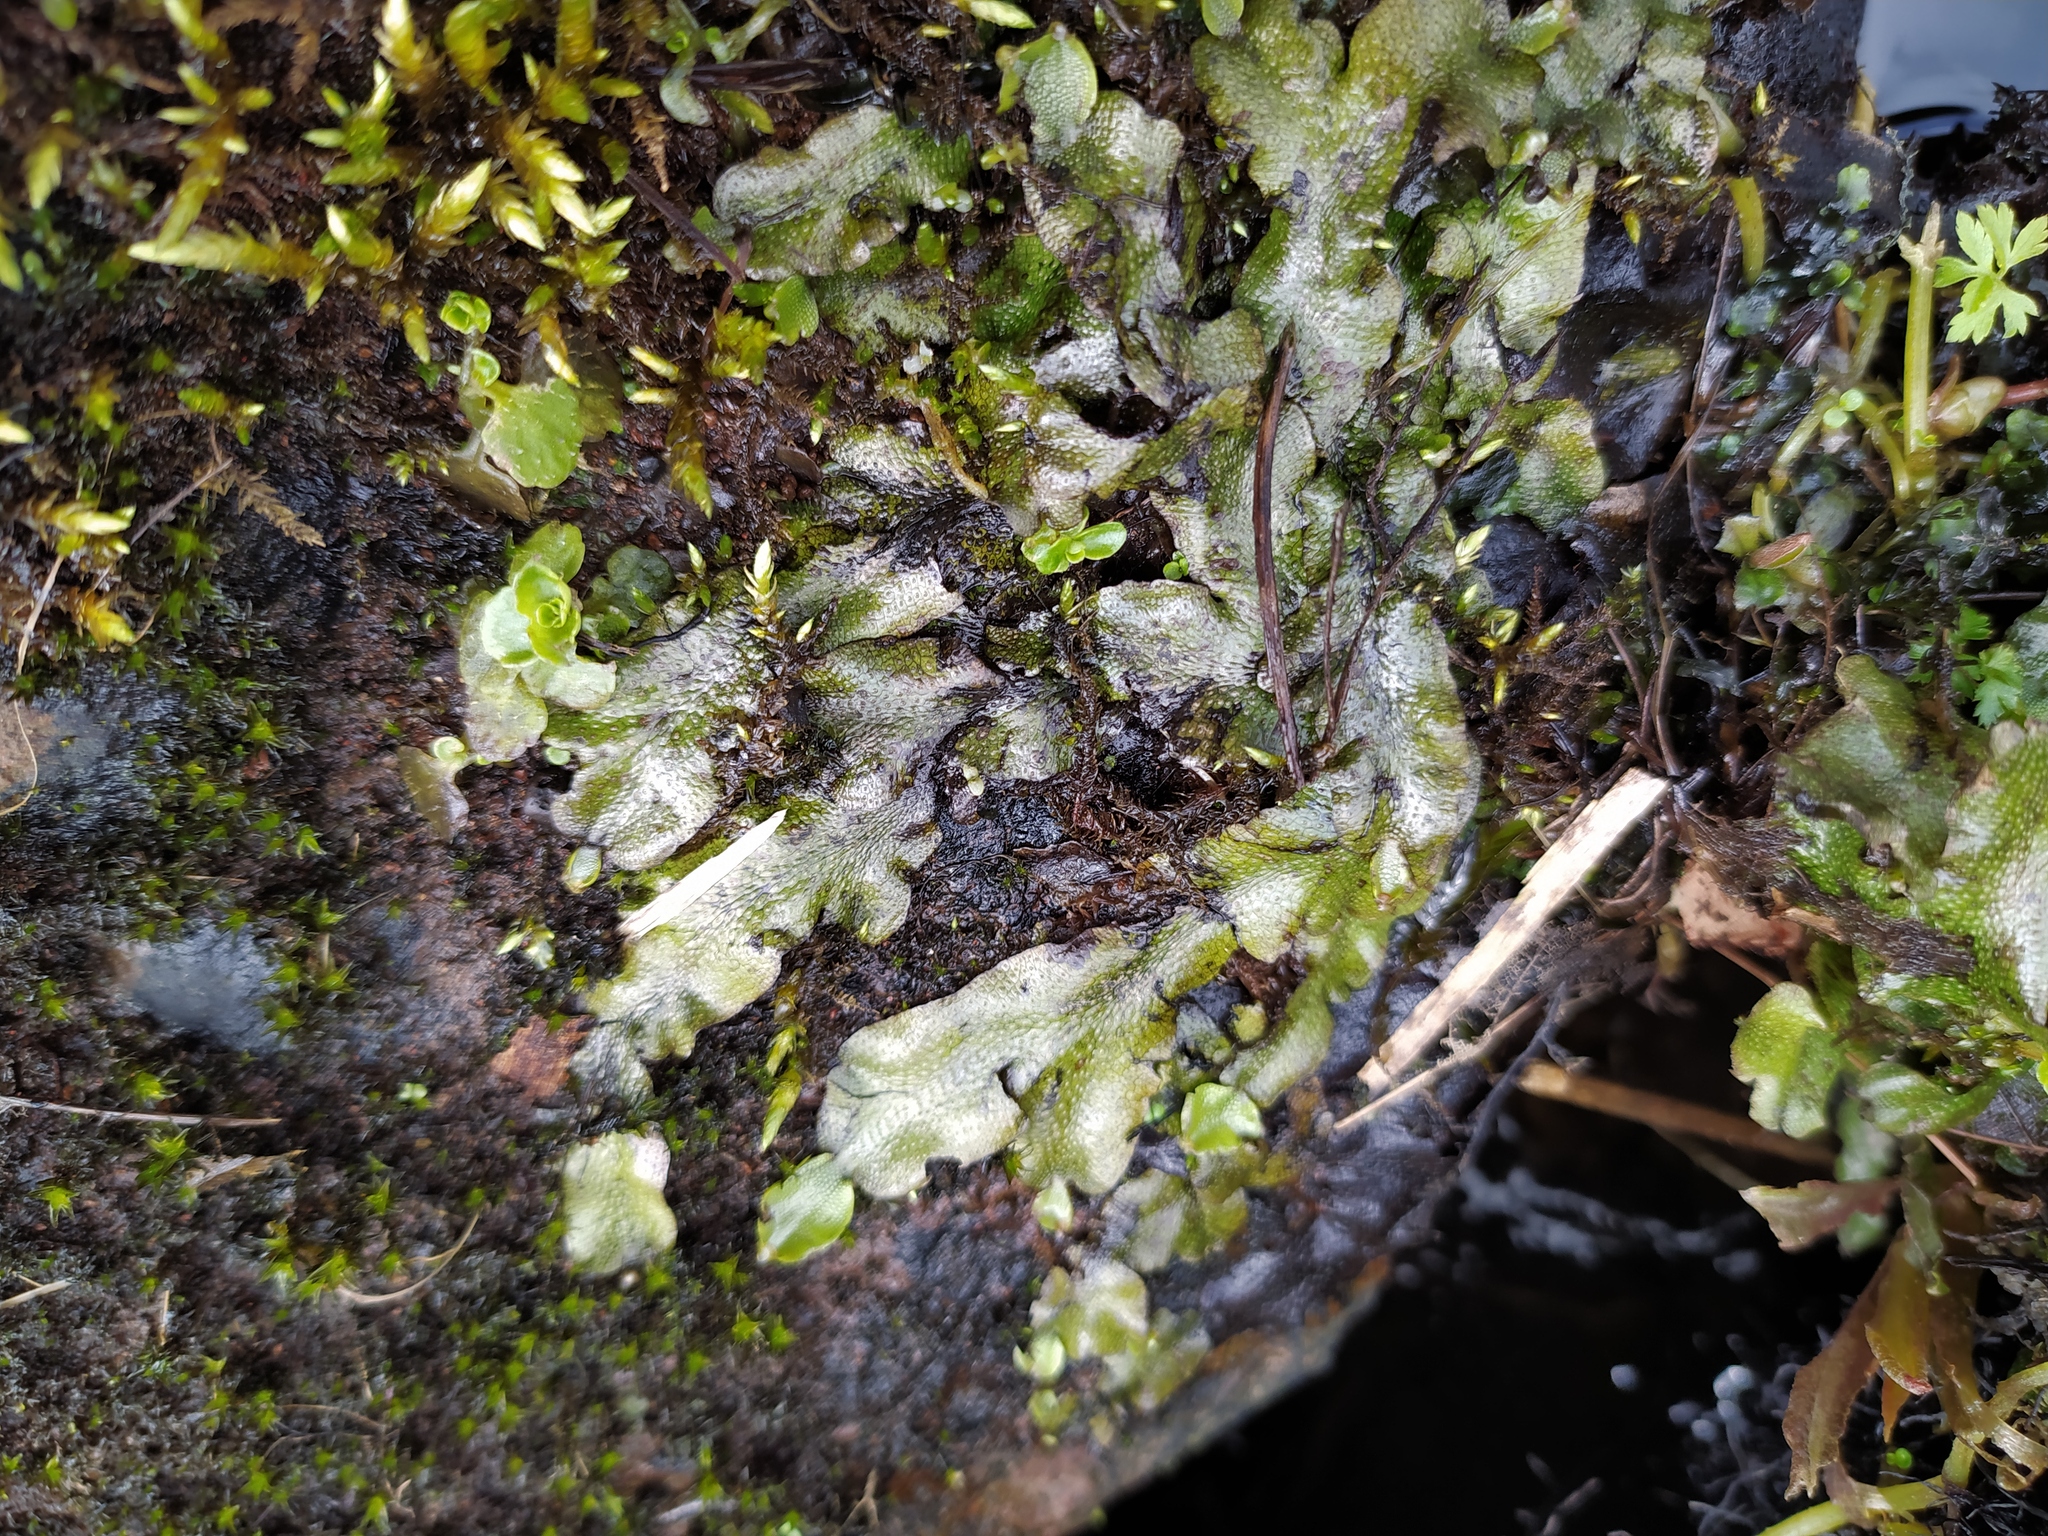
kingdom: Plantae
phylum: Marchantiophyta
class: Marchantiopsida
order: Marchantiales
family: Conocephalaceae
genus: Conocephalum
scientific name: Conocephalum conicum
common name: Great scented liverwort
